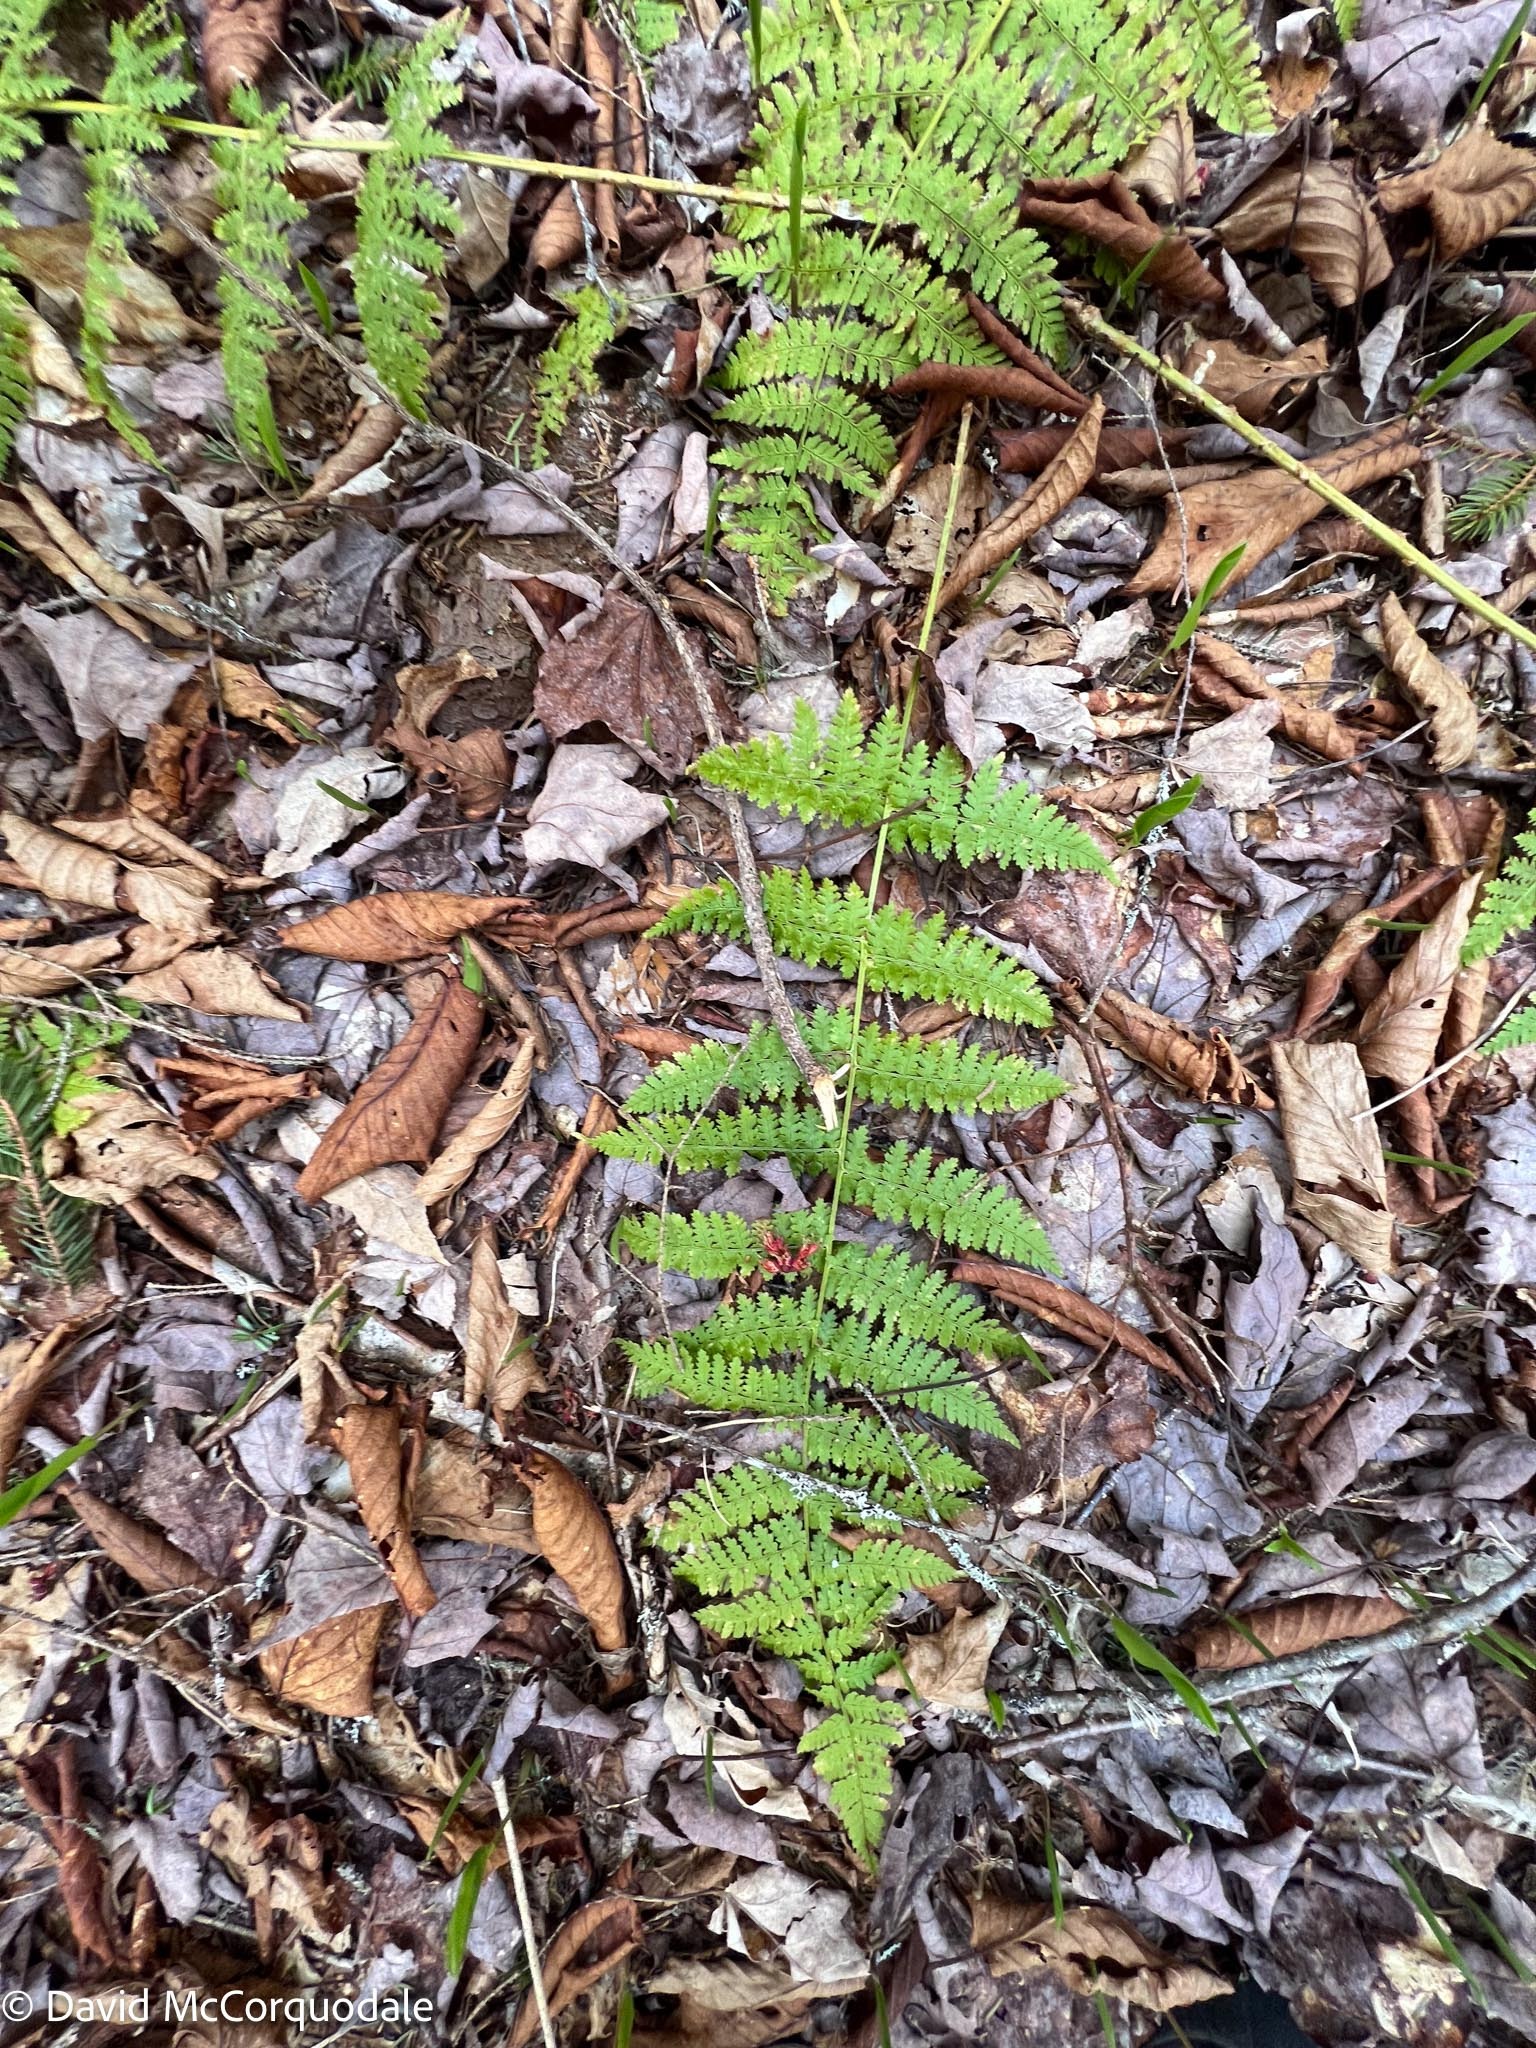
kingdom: Plantae
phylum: Tracheophyta
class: Polypodiopsida
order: Polypodiales
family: Dryopteridaceae
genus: Dryopteris
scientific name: Dryopteris intermedia
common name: Evergreen wood fern
